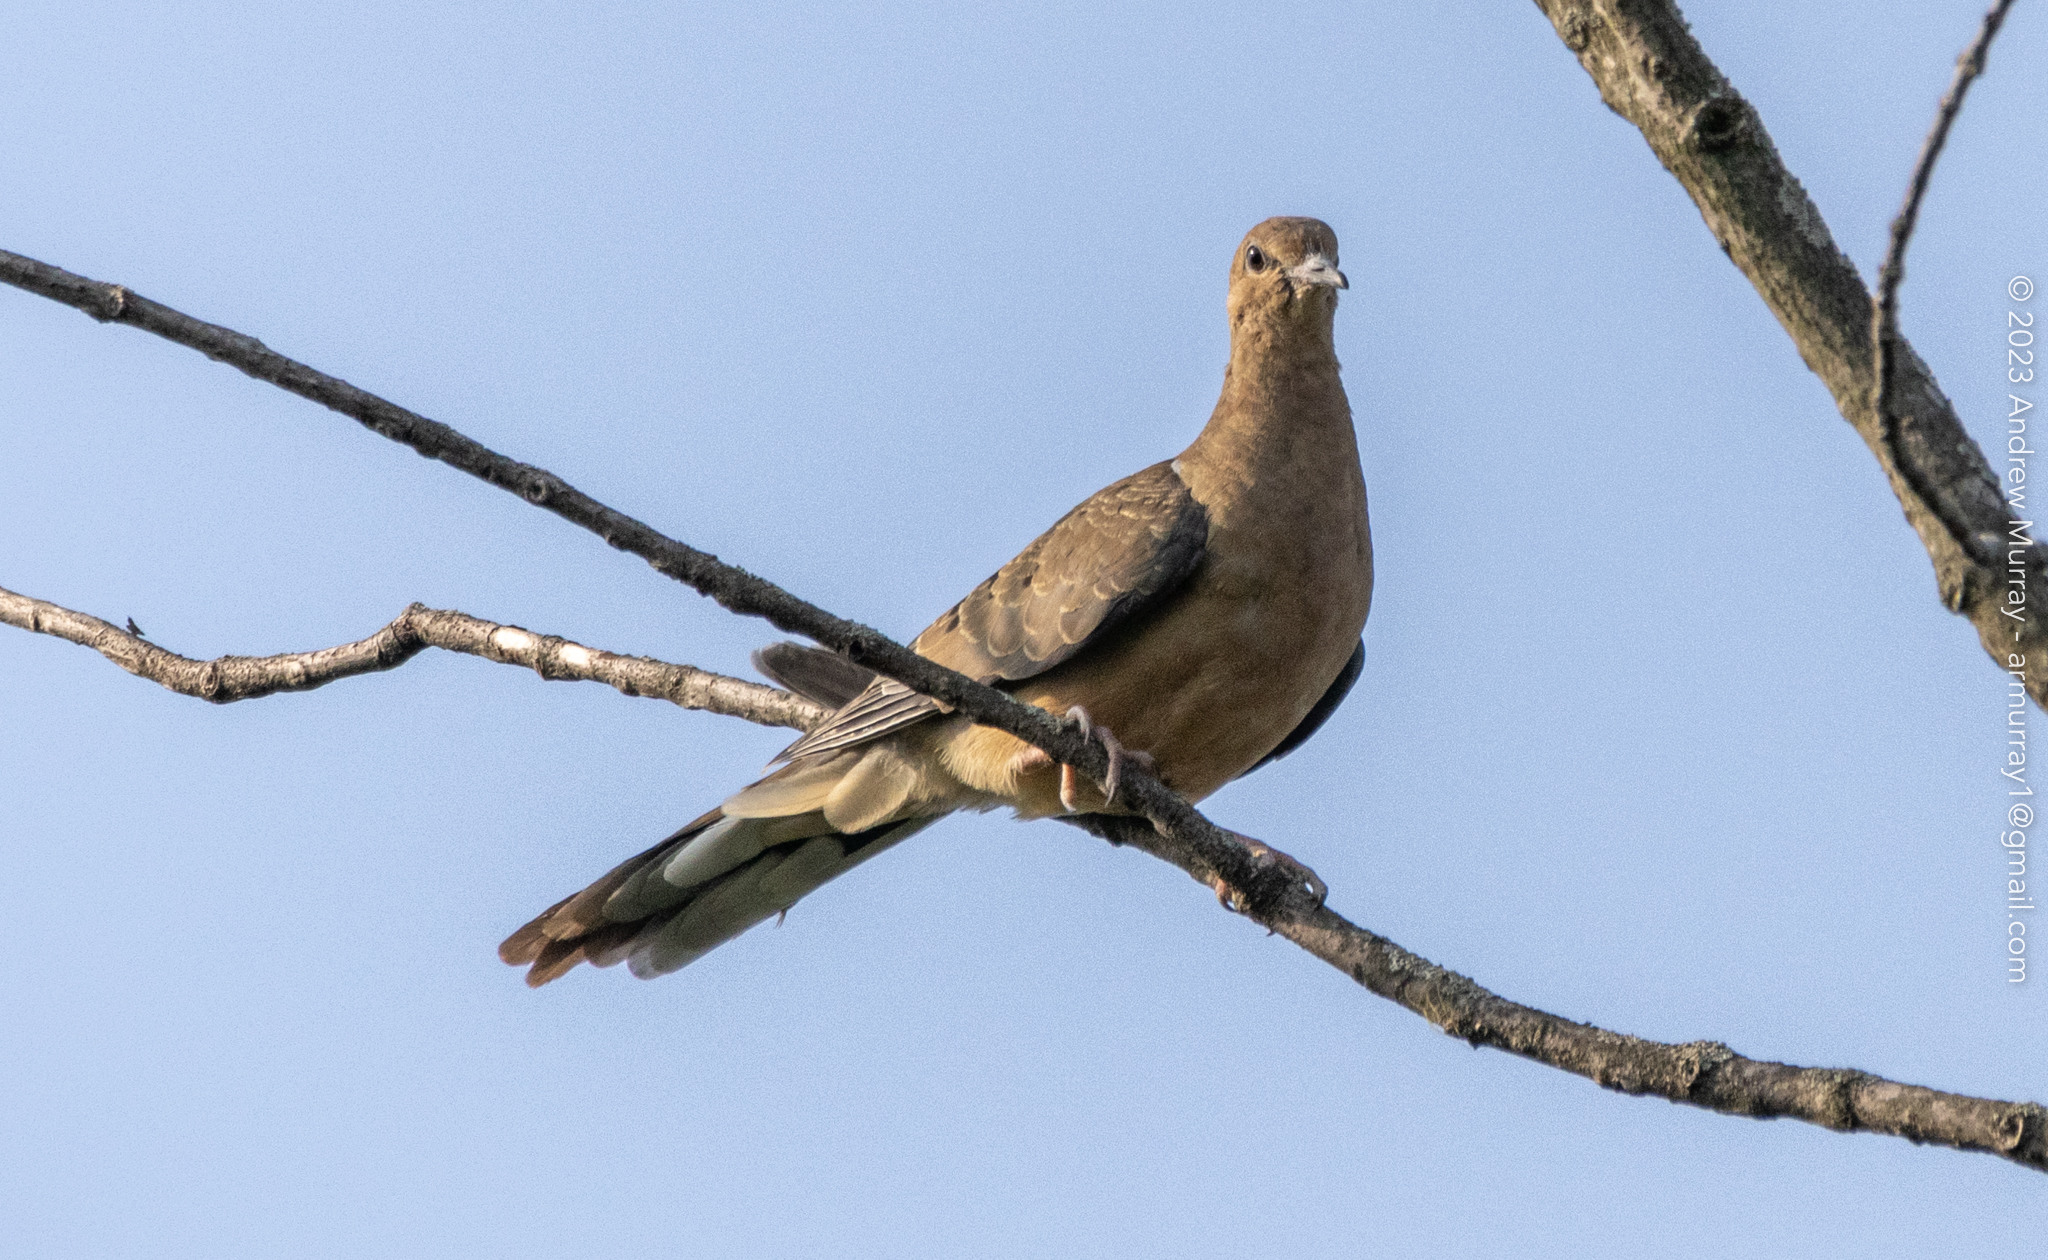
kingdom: Animalia
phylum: Chordata
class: Aves
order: Columbiformes
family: Columbidae
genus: Zenaida
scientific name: Zenaida macroura
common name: Mourning dove
